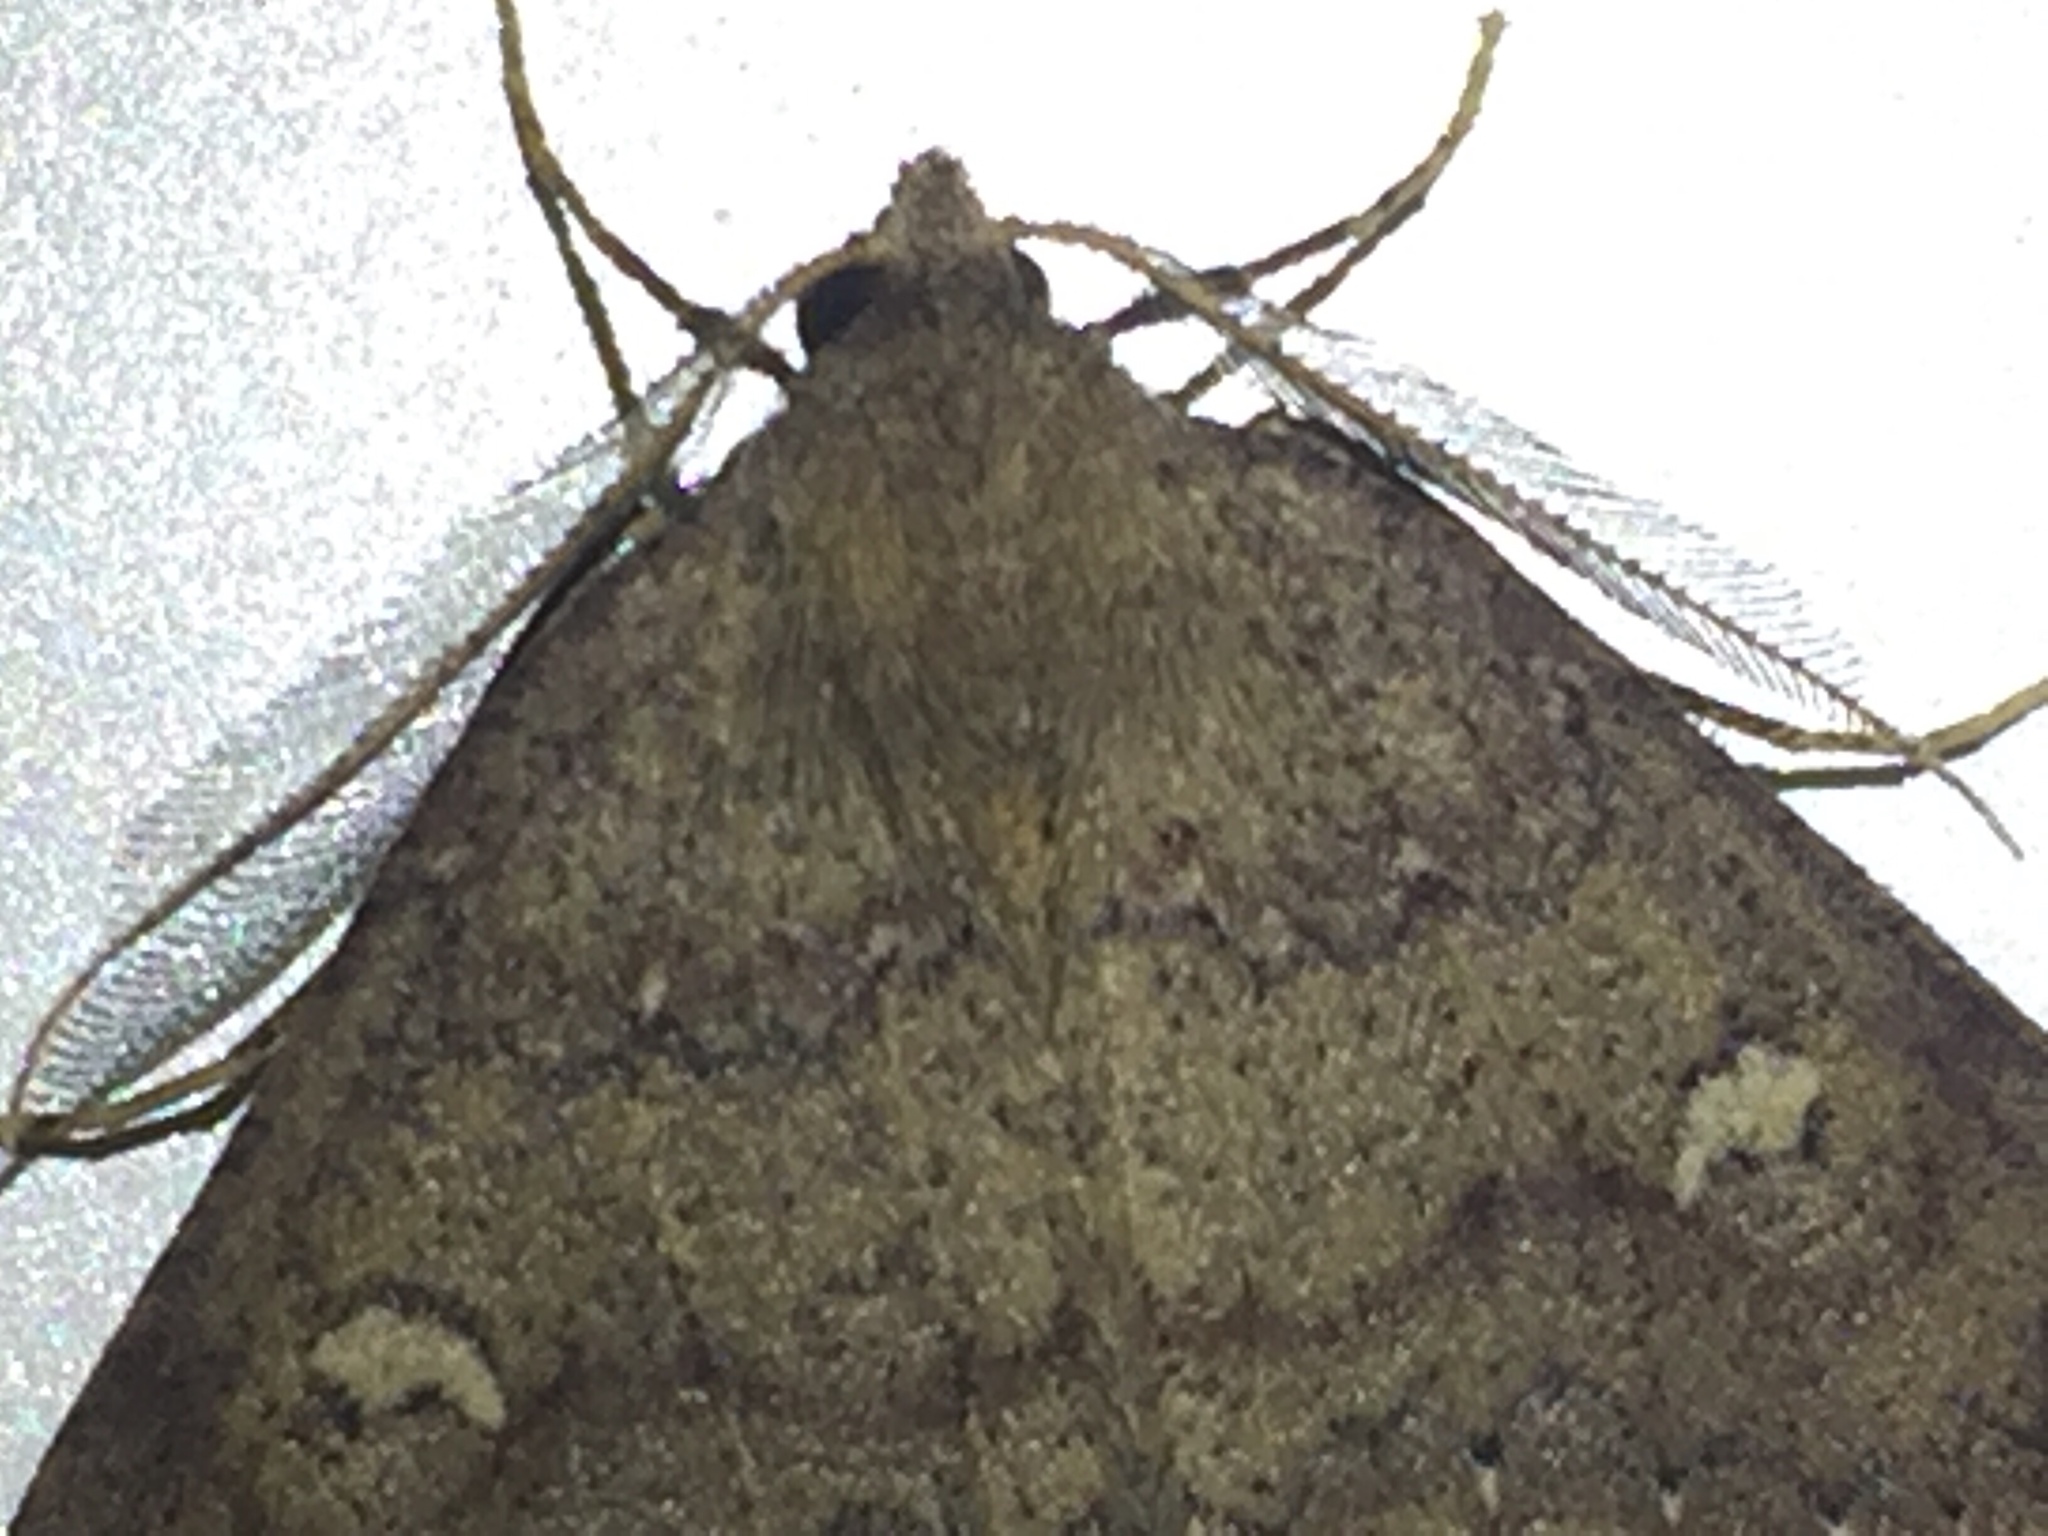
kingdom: Animalia
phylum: Arthropoda
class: Insecta
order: Lepidoptera
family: Geometridae
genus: Cleora
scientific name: Cleora scriptaria
